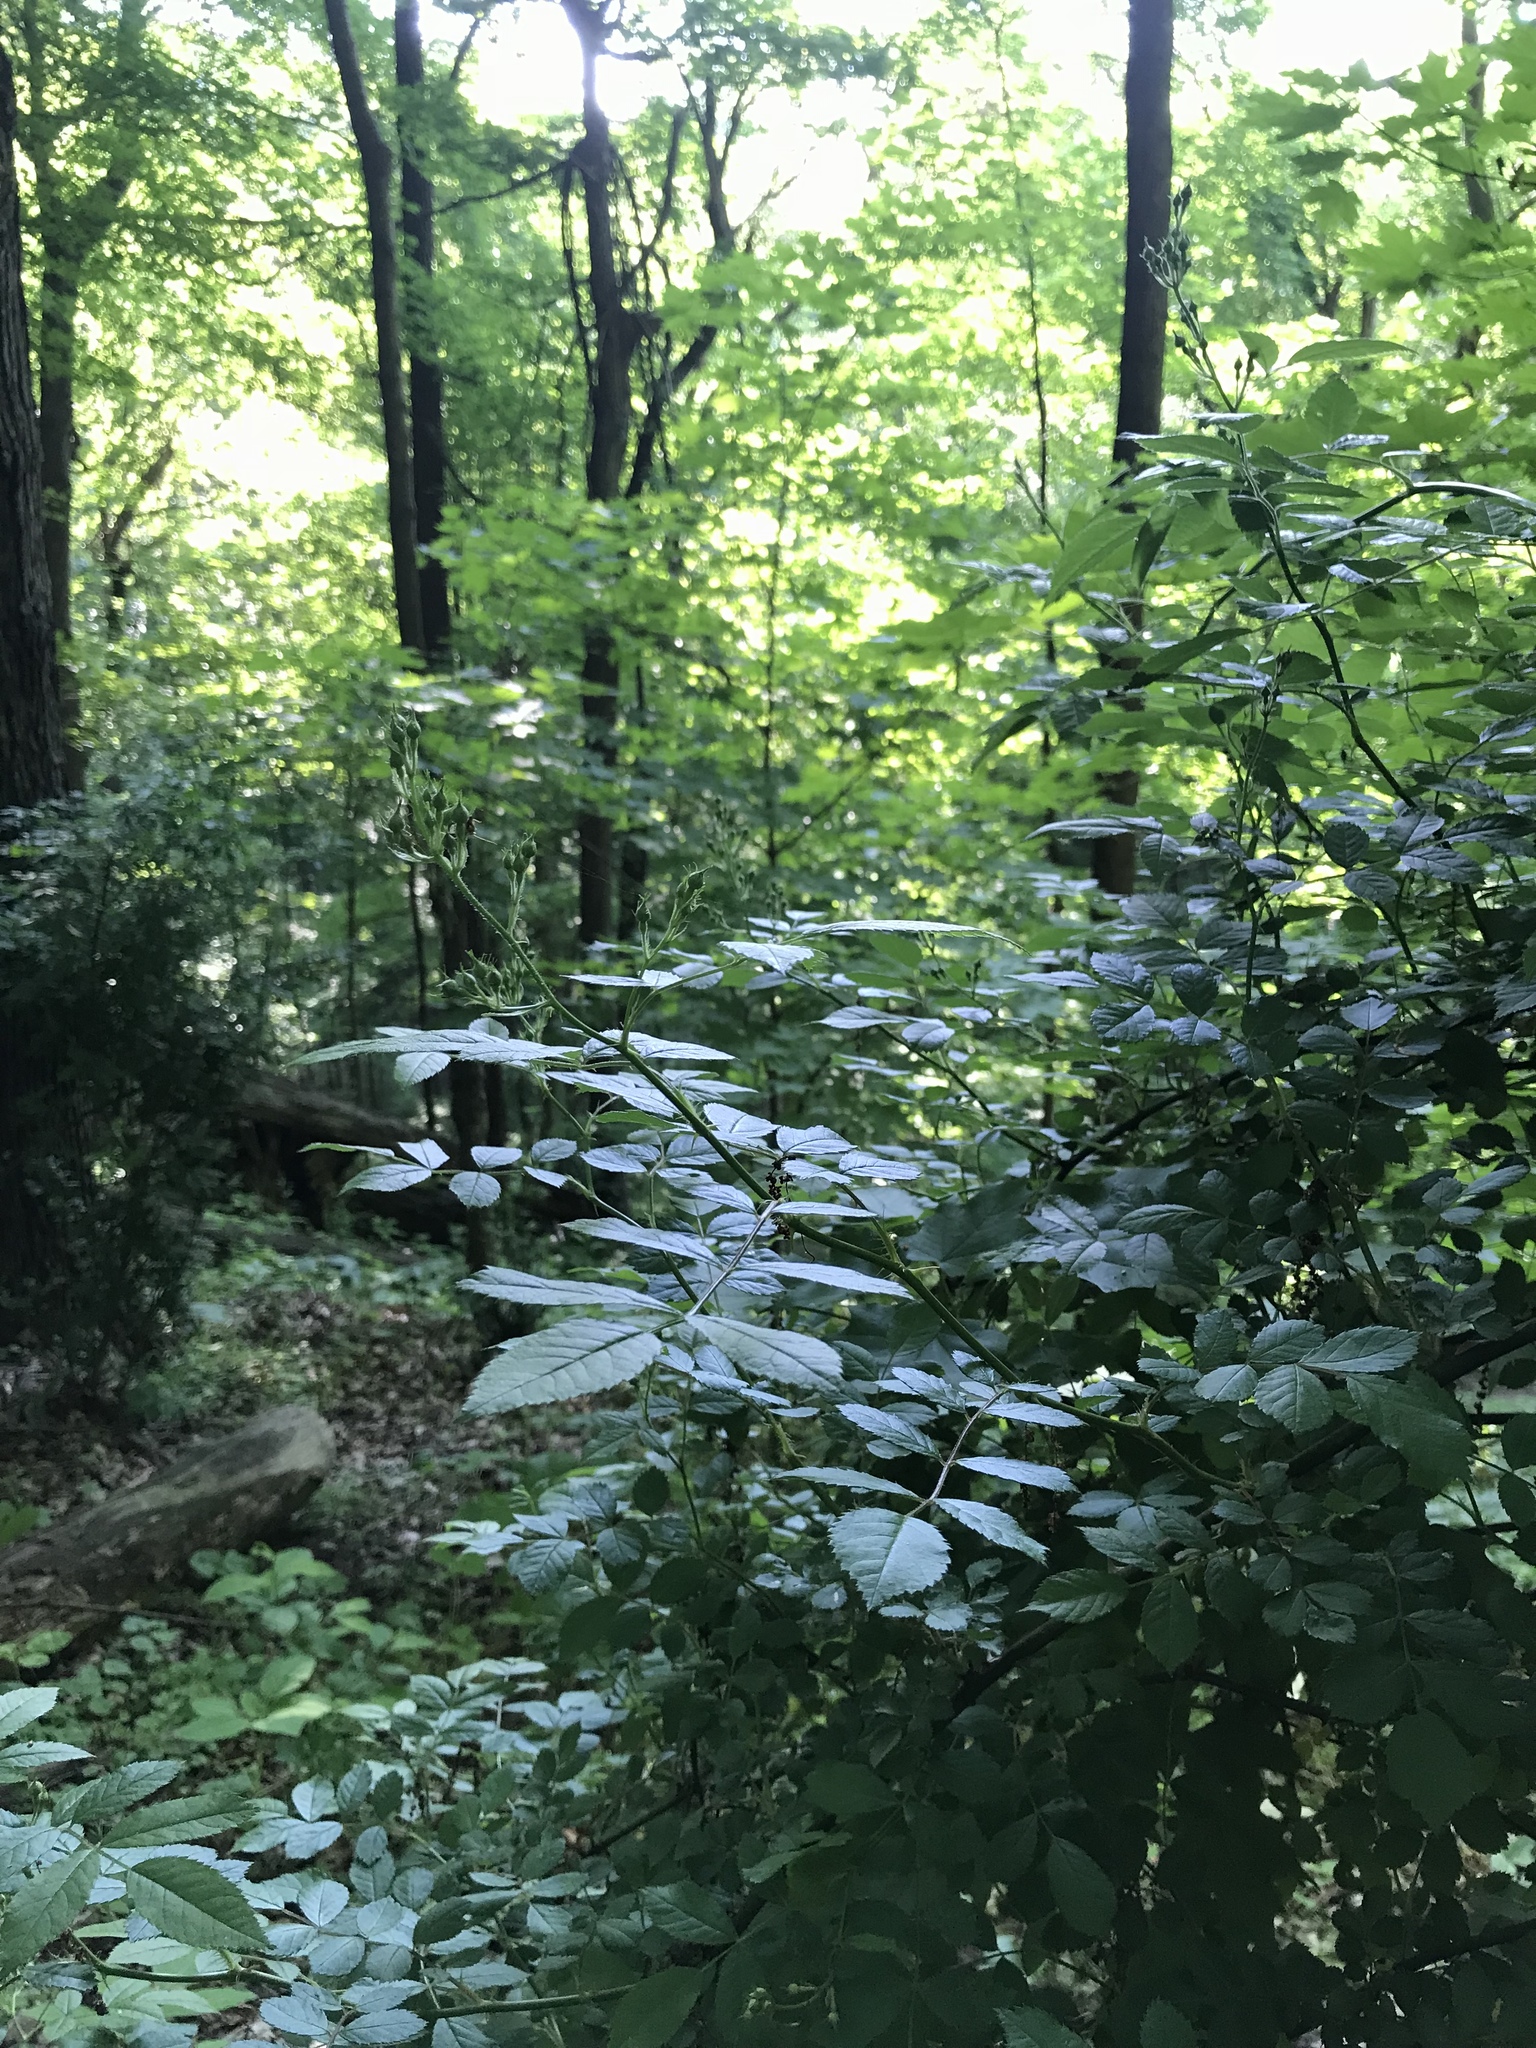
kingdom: Plantae
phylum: Tracheophyta
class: Magnoliopsida
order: Rosales
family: Rosaceae
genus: Rosa
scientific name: Rosa multiflora
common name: Multiflora rose
